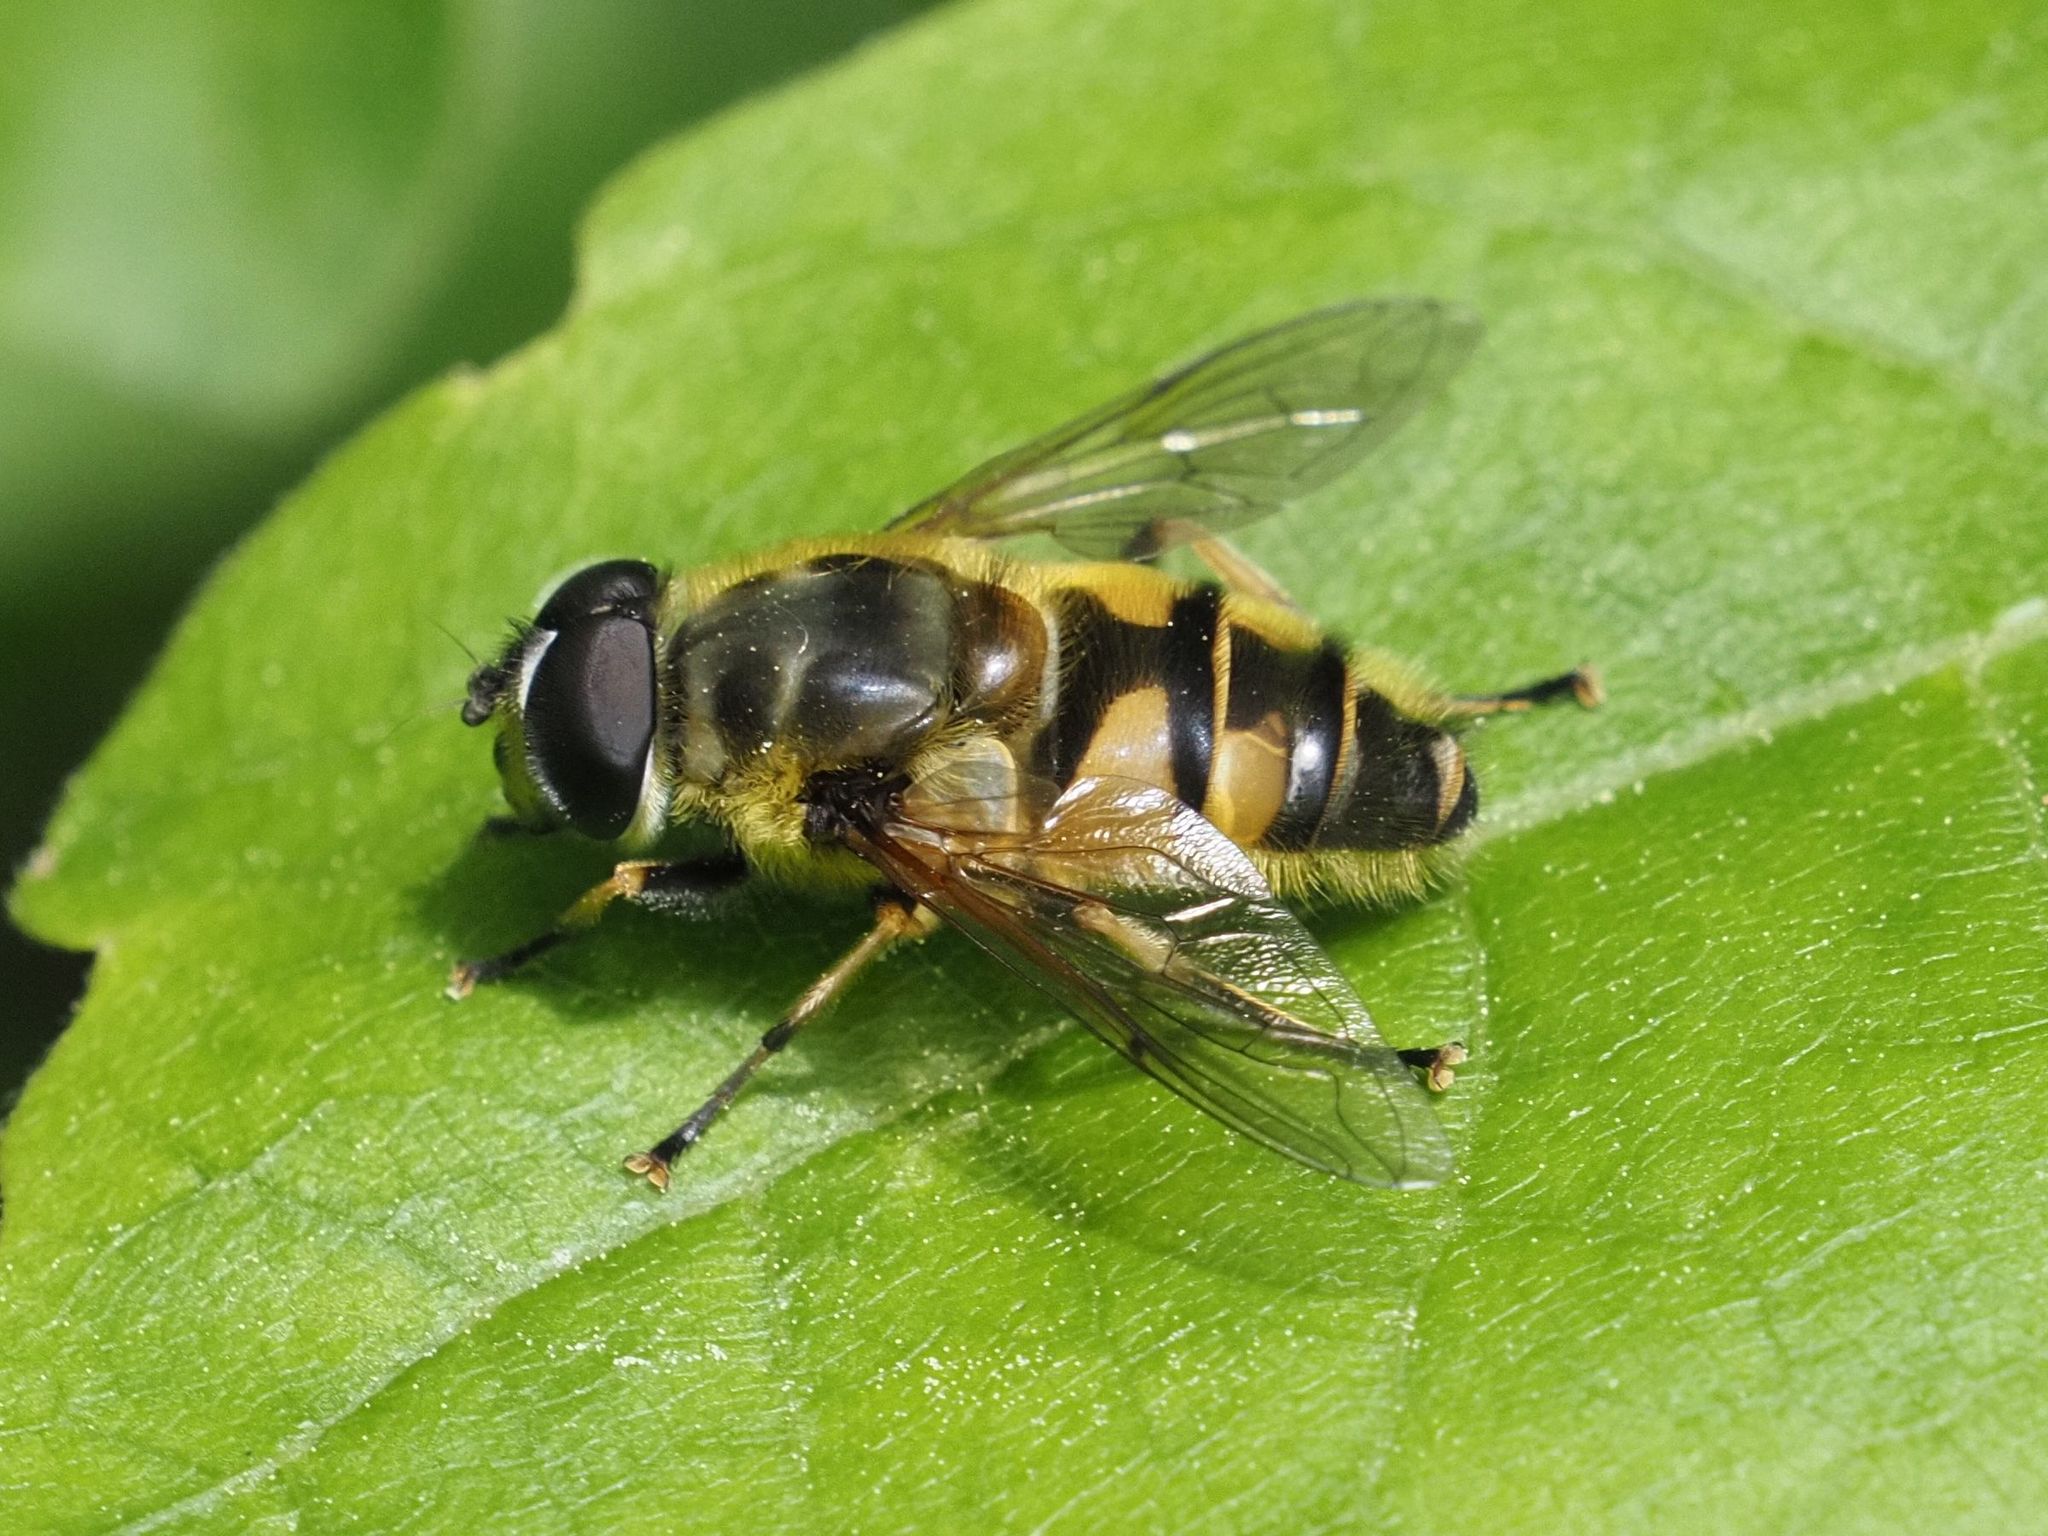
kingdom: Animalia
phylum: Arthropoda
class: Insecta
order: Diptera
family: Syrphidae
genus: Myathropa
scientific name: Myathropa florea
